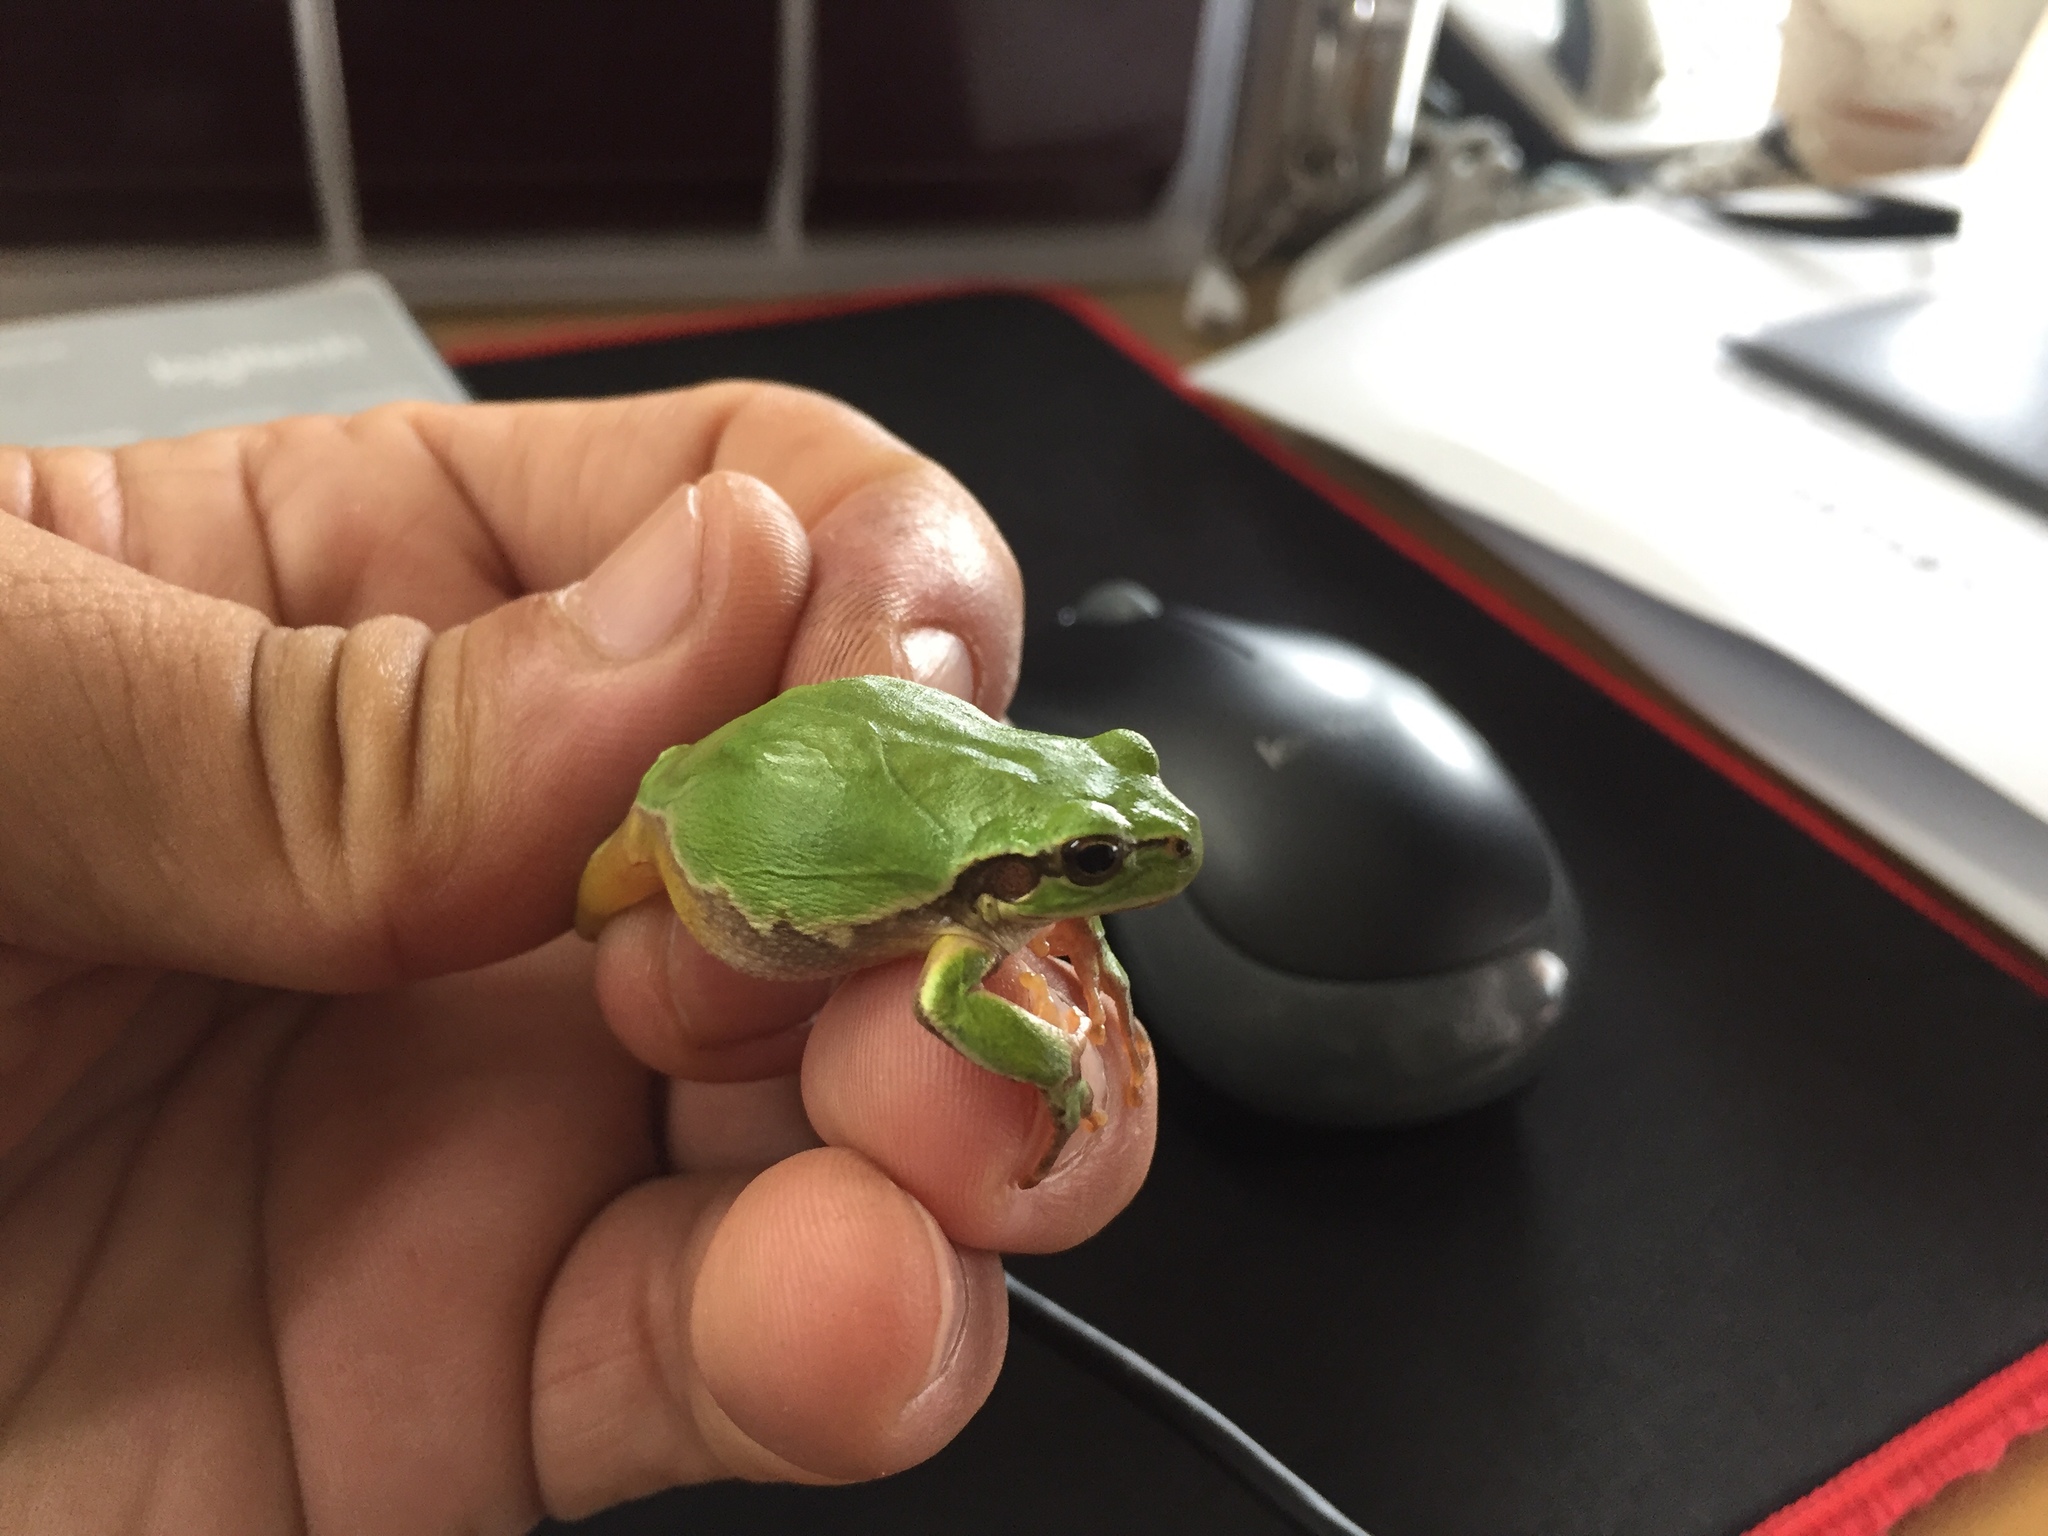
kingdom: Animalia
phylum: Chordata
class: Amphibia
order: Anura
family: Hylidae
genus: Dryophytes
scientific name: Dryophytes japonicus
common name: Japanese treefrog
